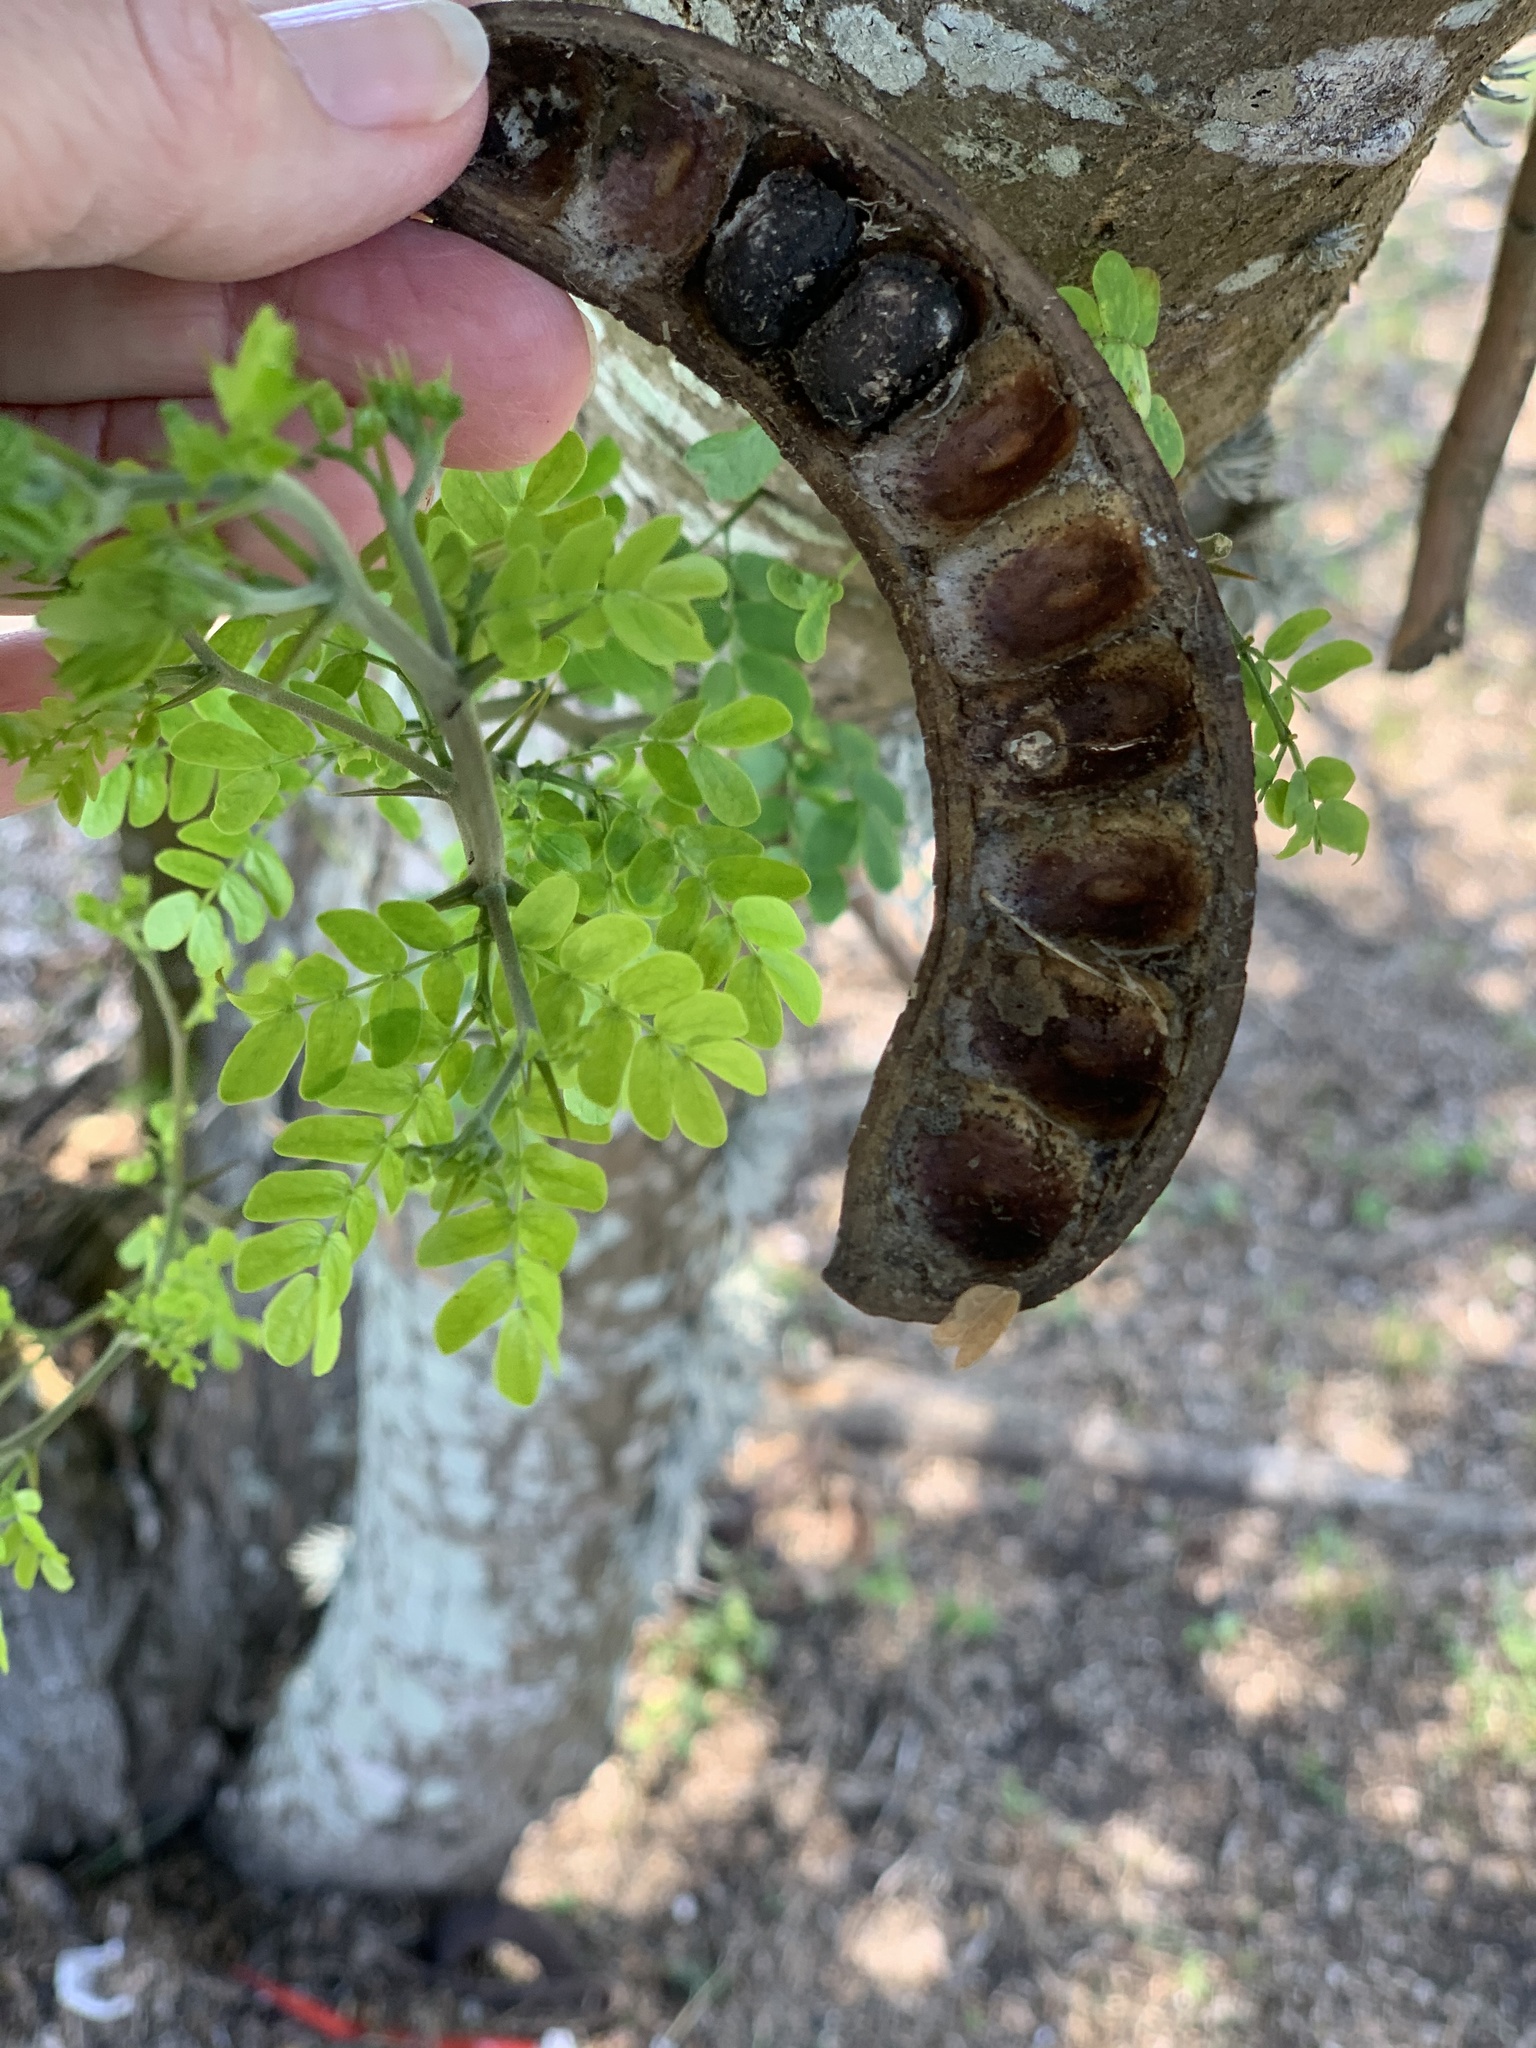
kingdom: Plantae
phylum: Tracheophyta
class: Magnoliopsida
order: Fabales
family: Fabaceae
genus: Ebenopsis
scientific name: Ebenopsis ebano
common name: Ebony blackbead
